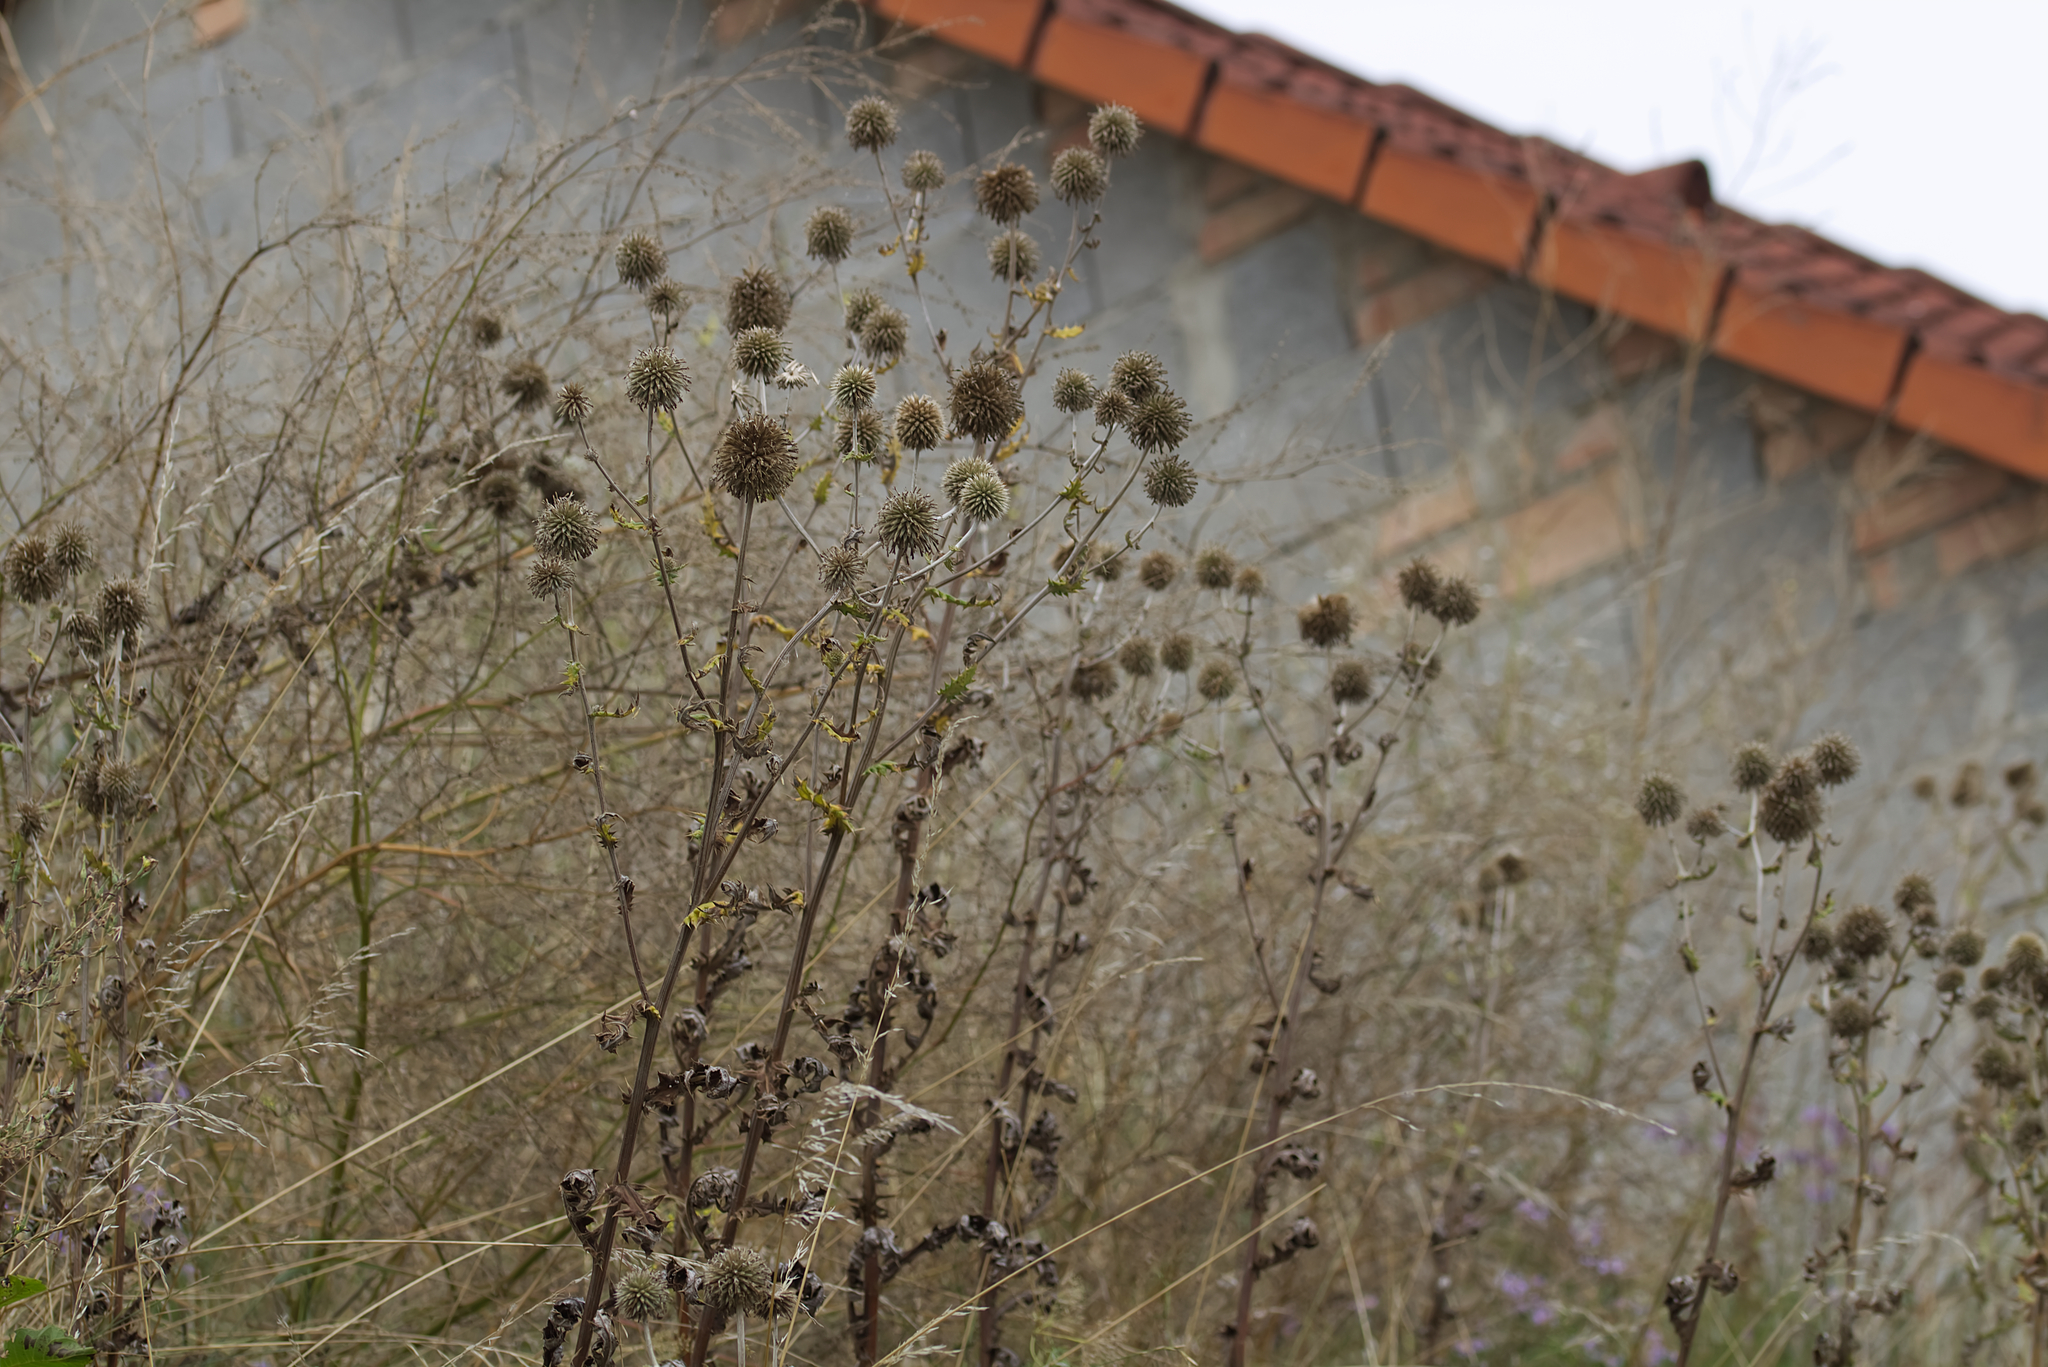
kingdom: Plantae
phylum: Tracheophyta
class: Magnoliopsida
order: Asterales
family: Asteraceae
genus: Echinops
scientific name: Echinops sphaerocephalus
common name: Glandular globe-thistle
